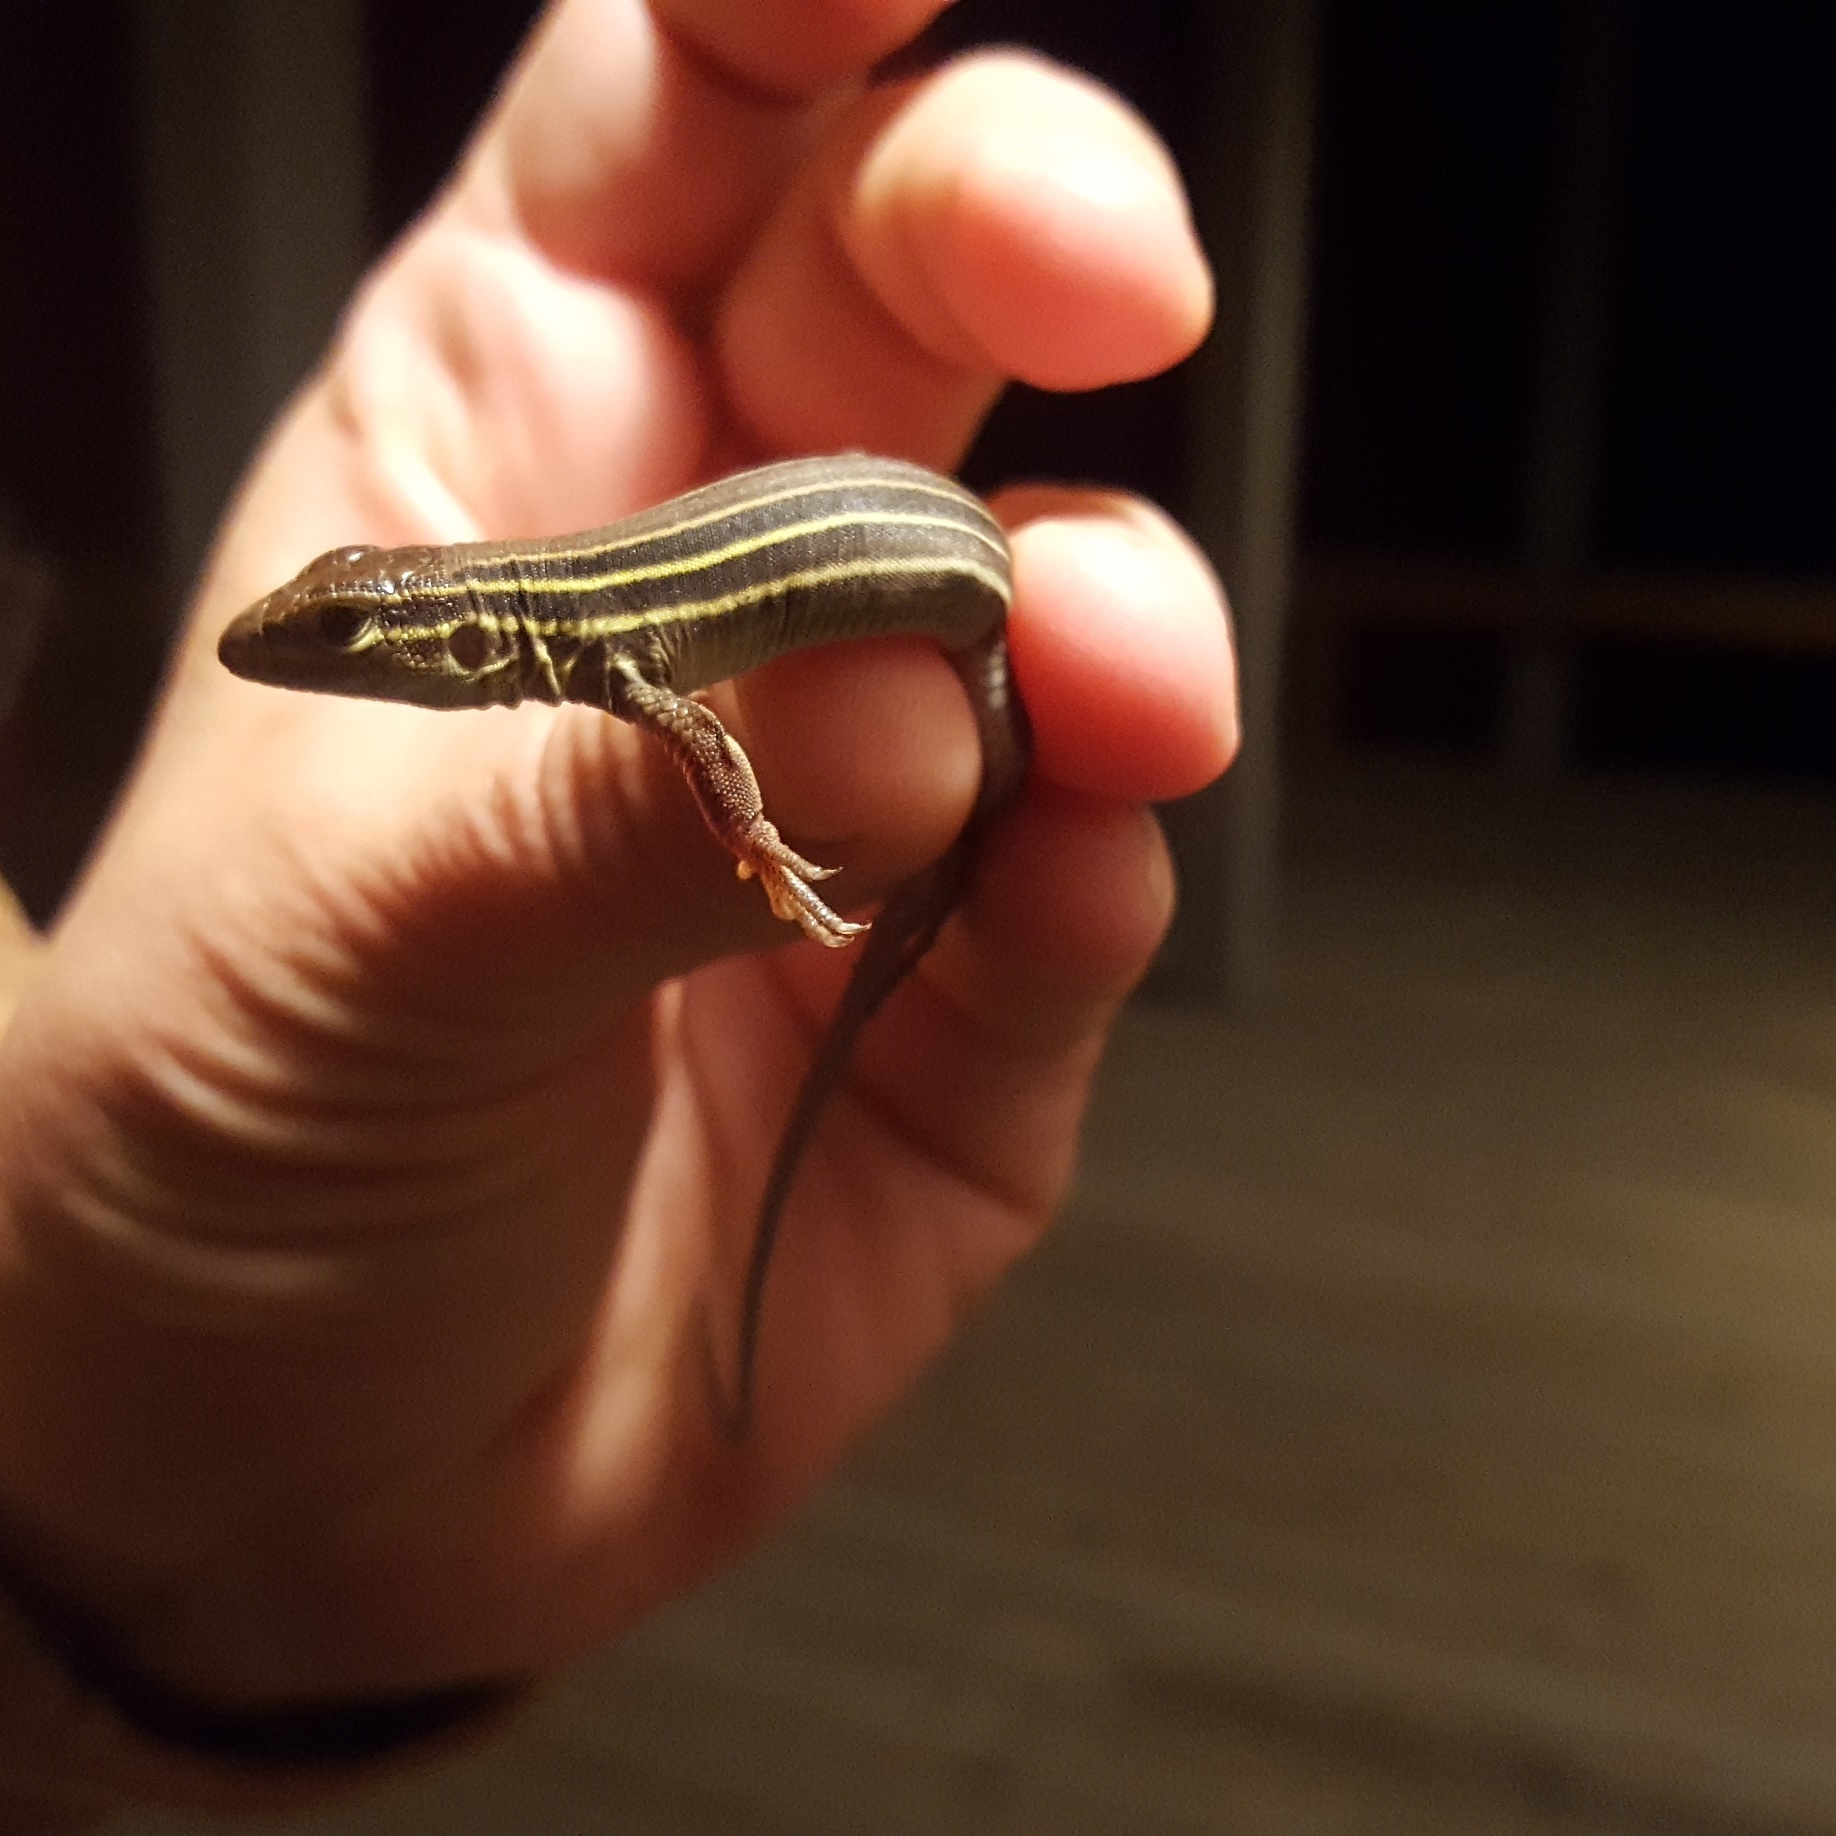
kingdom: Animalia
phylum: Chordata
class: Squamata
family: Teiidae
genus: Aspidoscelis
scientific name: Aspidoscelis sexlineatus
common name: Six-lined racerunner
